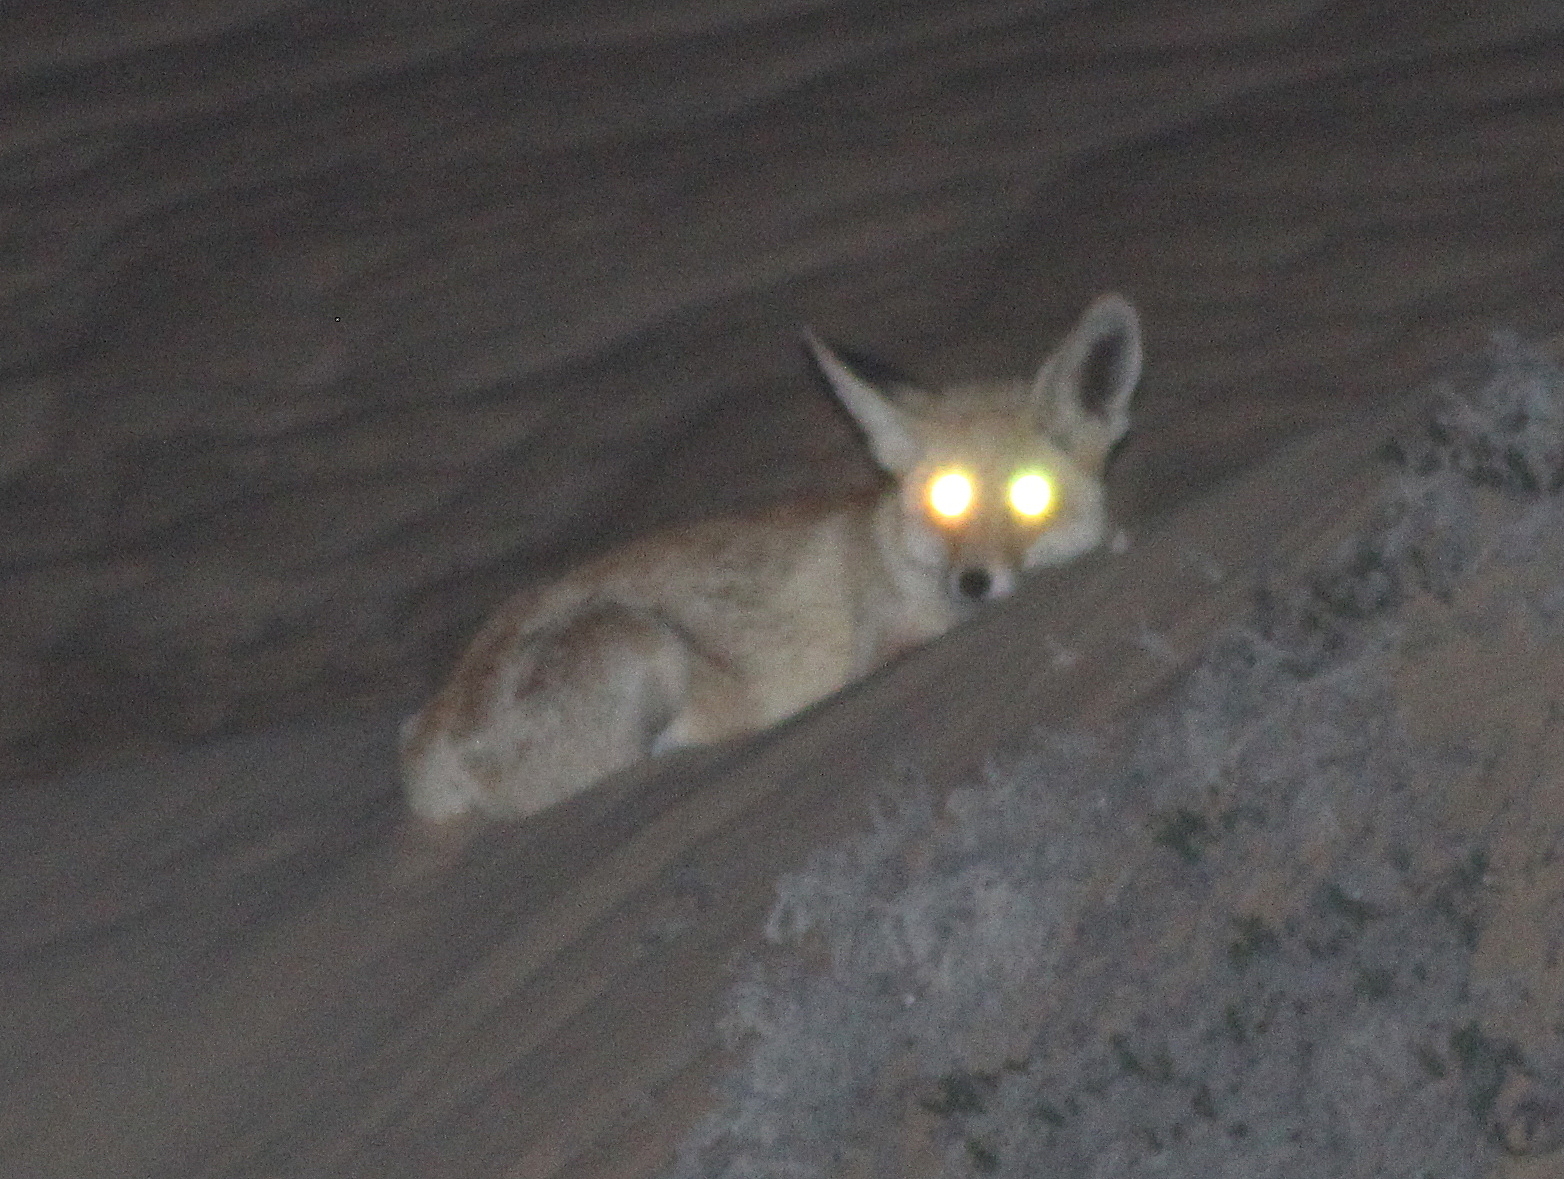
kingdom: Animalia
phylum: Chordata
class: Mammalia
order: Carnivora
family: Canidae
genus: Vulpes
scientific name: Vulpes vulpes
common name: Red fox
